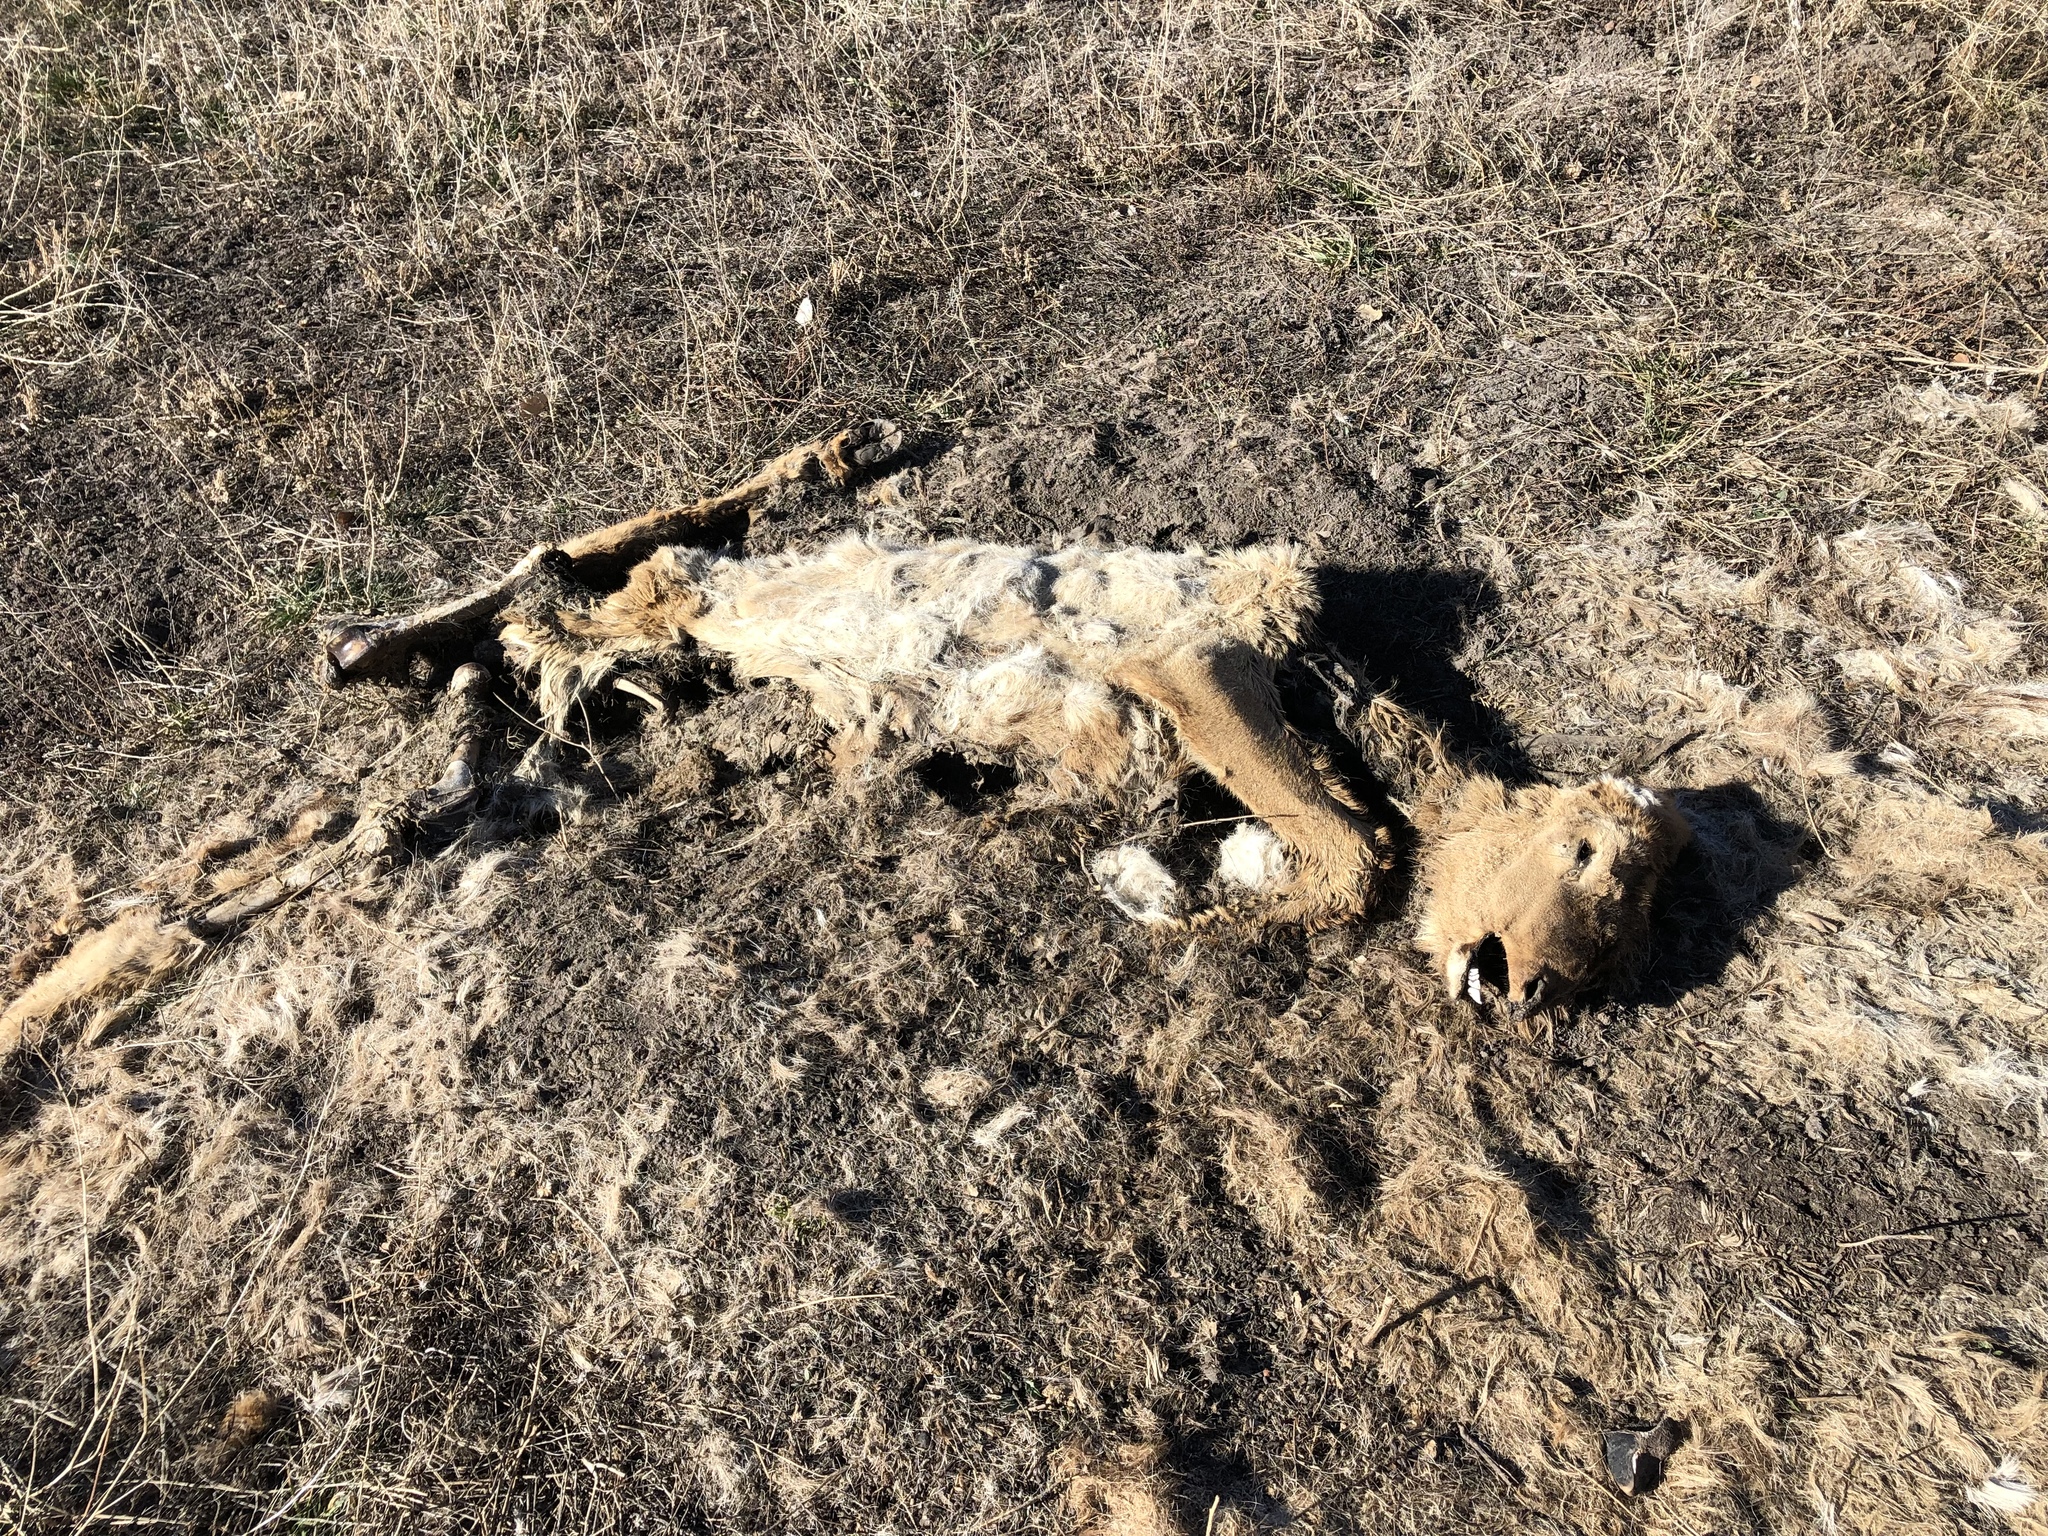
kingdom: Animalia
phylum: Chordata
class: Mammalia
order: Artiodactyla
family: Cervidae
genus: Cervus
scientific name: Cervus elaphus
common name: Red deer
